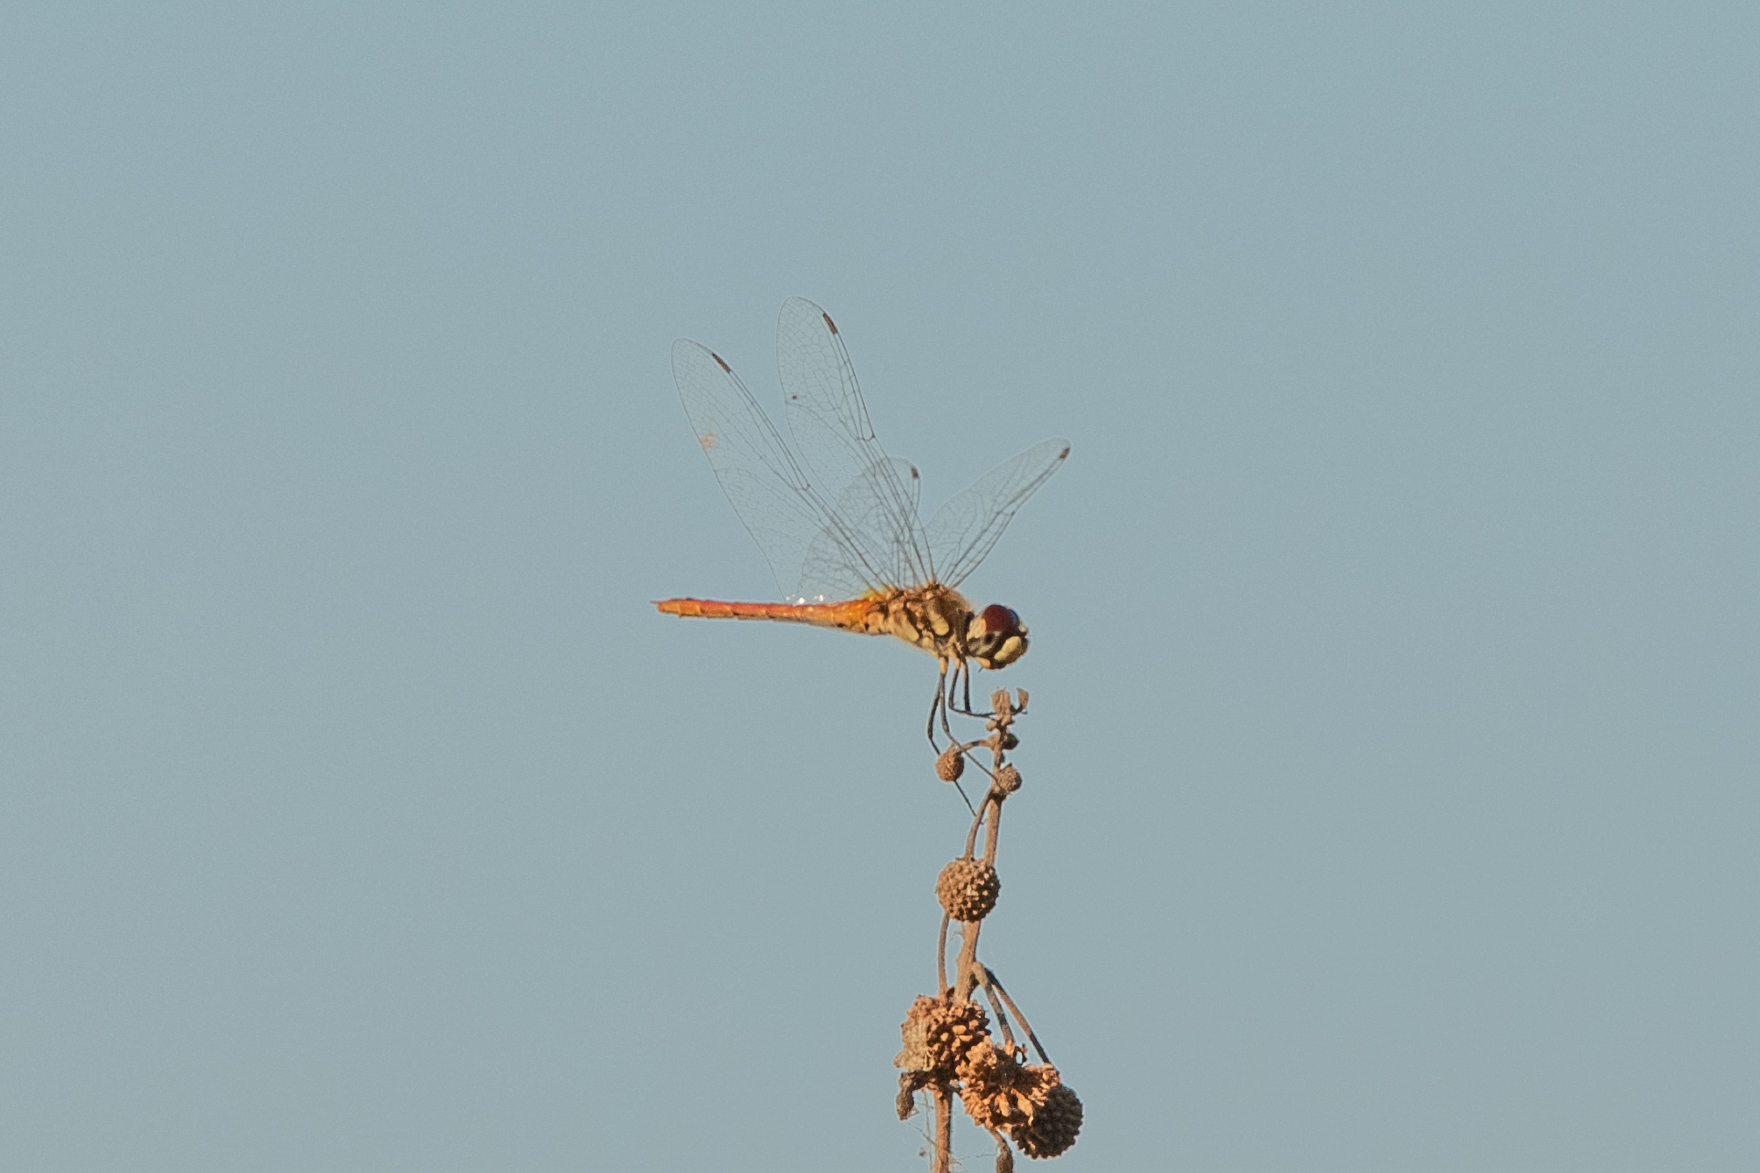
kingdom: Animalia
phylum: Arthropoda
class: Insecta
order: Odonata
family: Libellulidae
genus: Macrodiplax
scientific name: Macrodiplax cora
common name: Coastal glider
